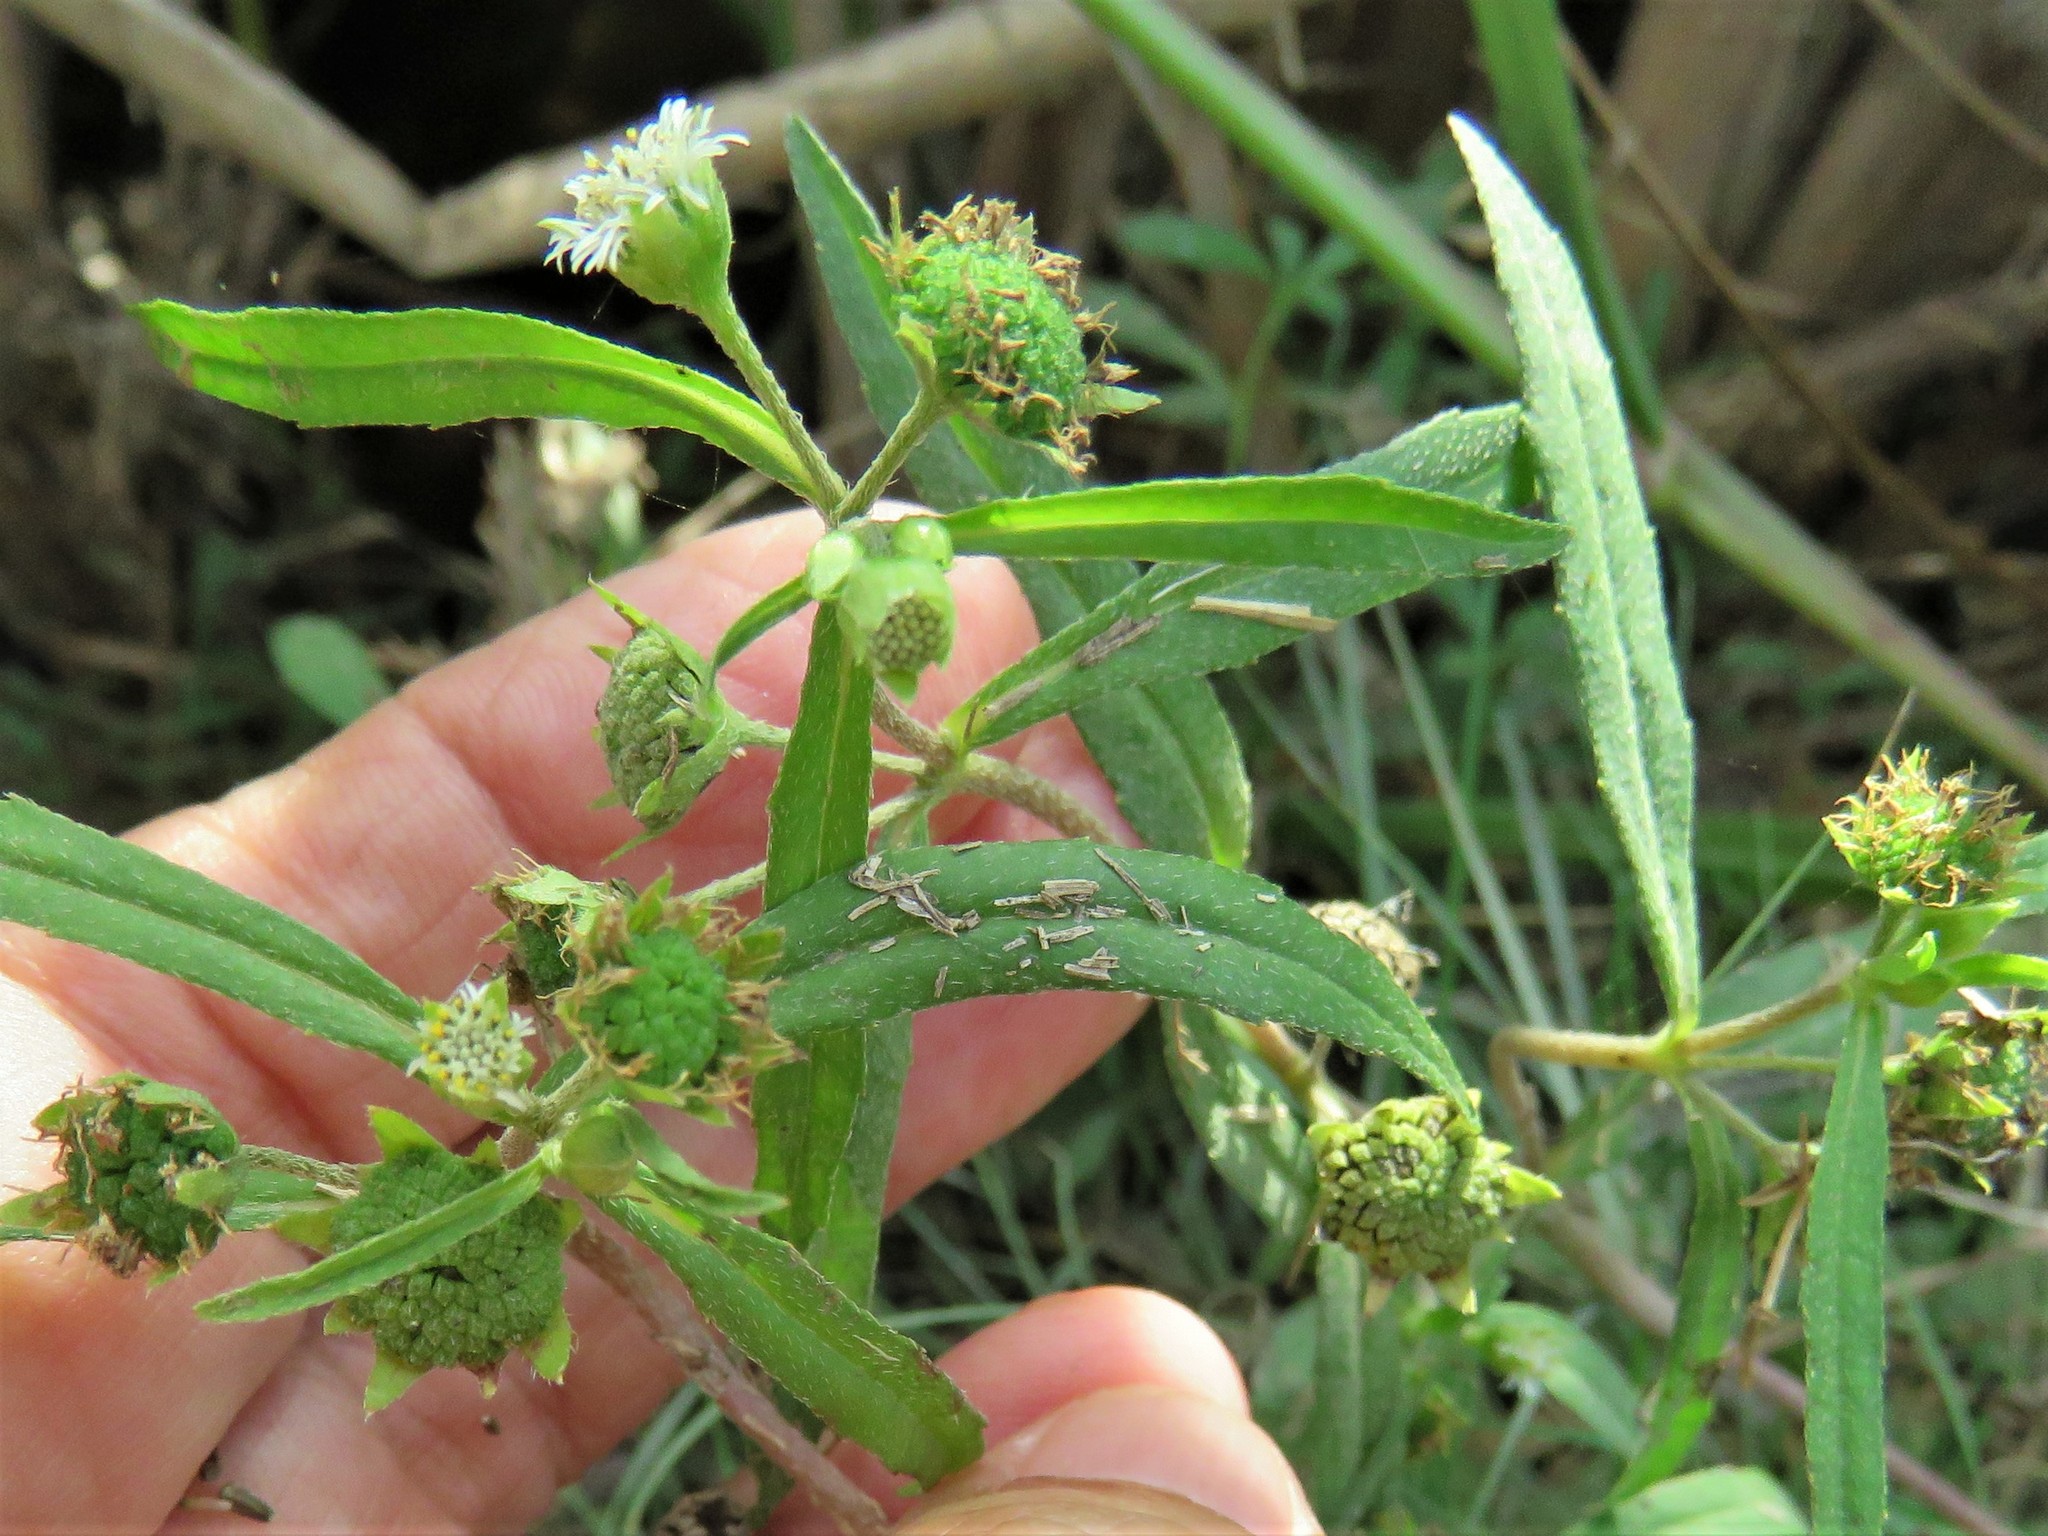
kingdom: Plantae
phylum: Tracheophyta
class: Magnoliopsida
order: Asterales
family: Asteraceae
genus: Eclipta
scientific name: Eclipta prostrata
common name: False daisy
